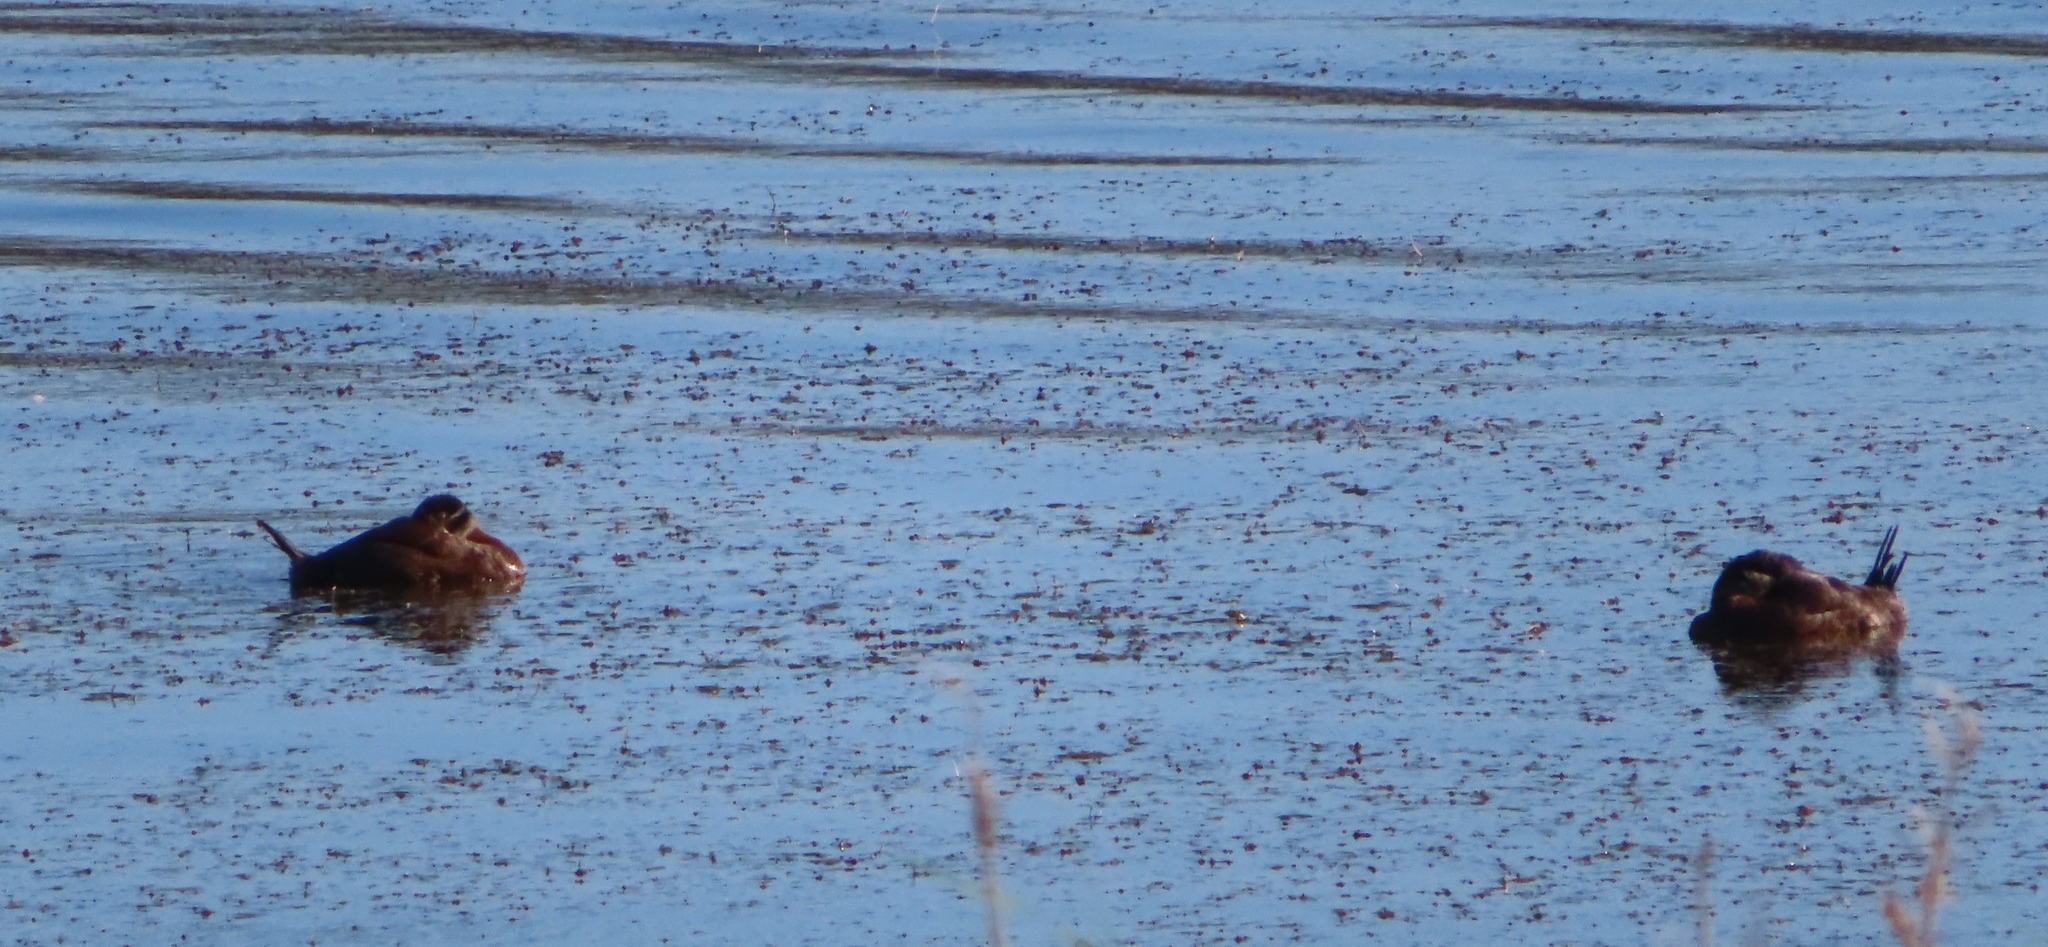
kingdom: Animalia
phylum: Chordata
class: Aves
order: Anseriformes
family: Anatidae
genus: Oxyura
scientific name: Oxyura maccoa
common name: Maccoa duck
